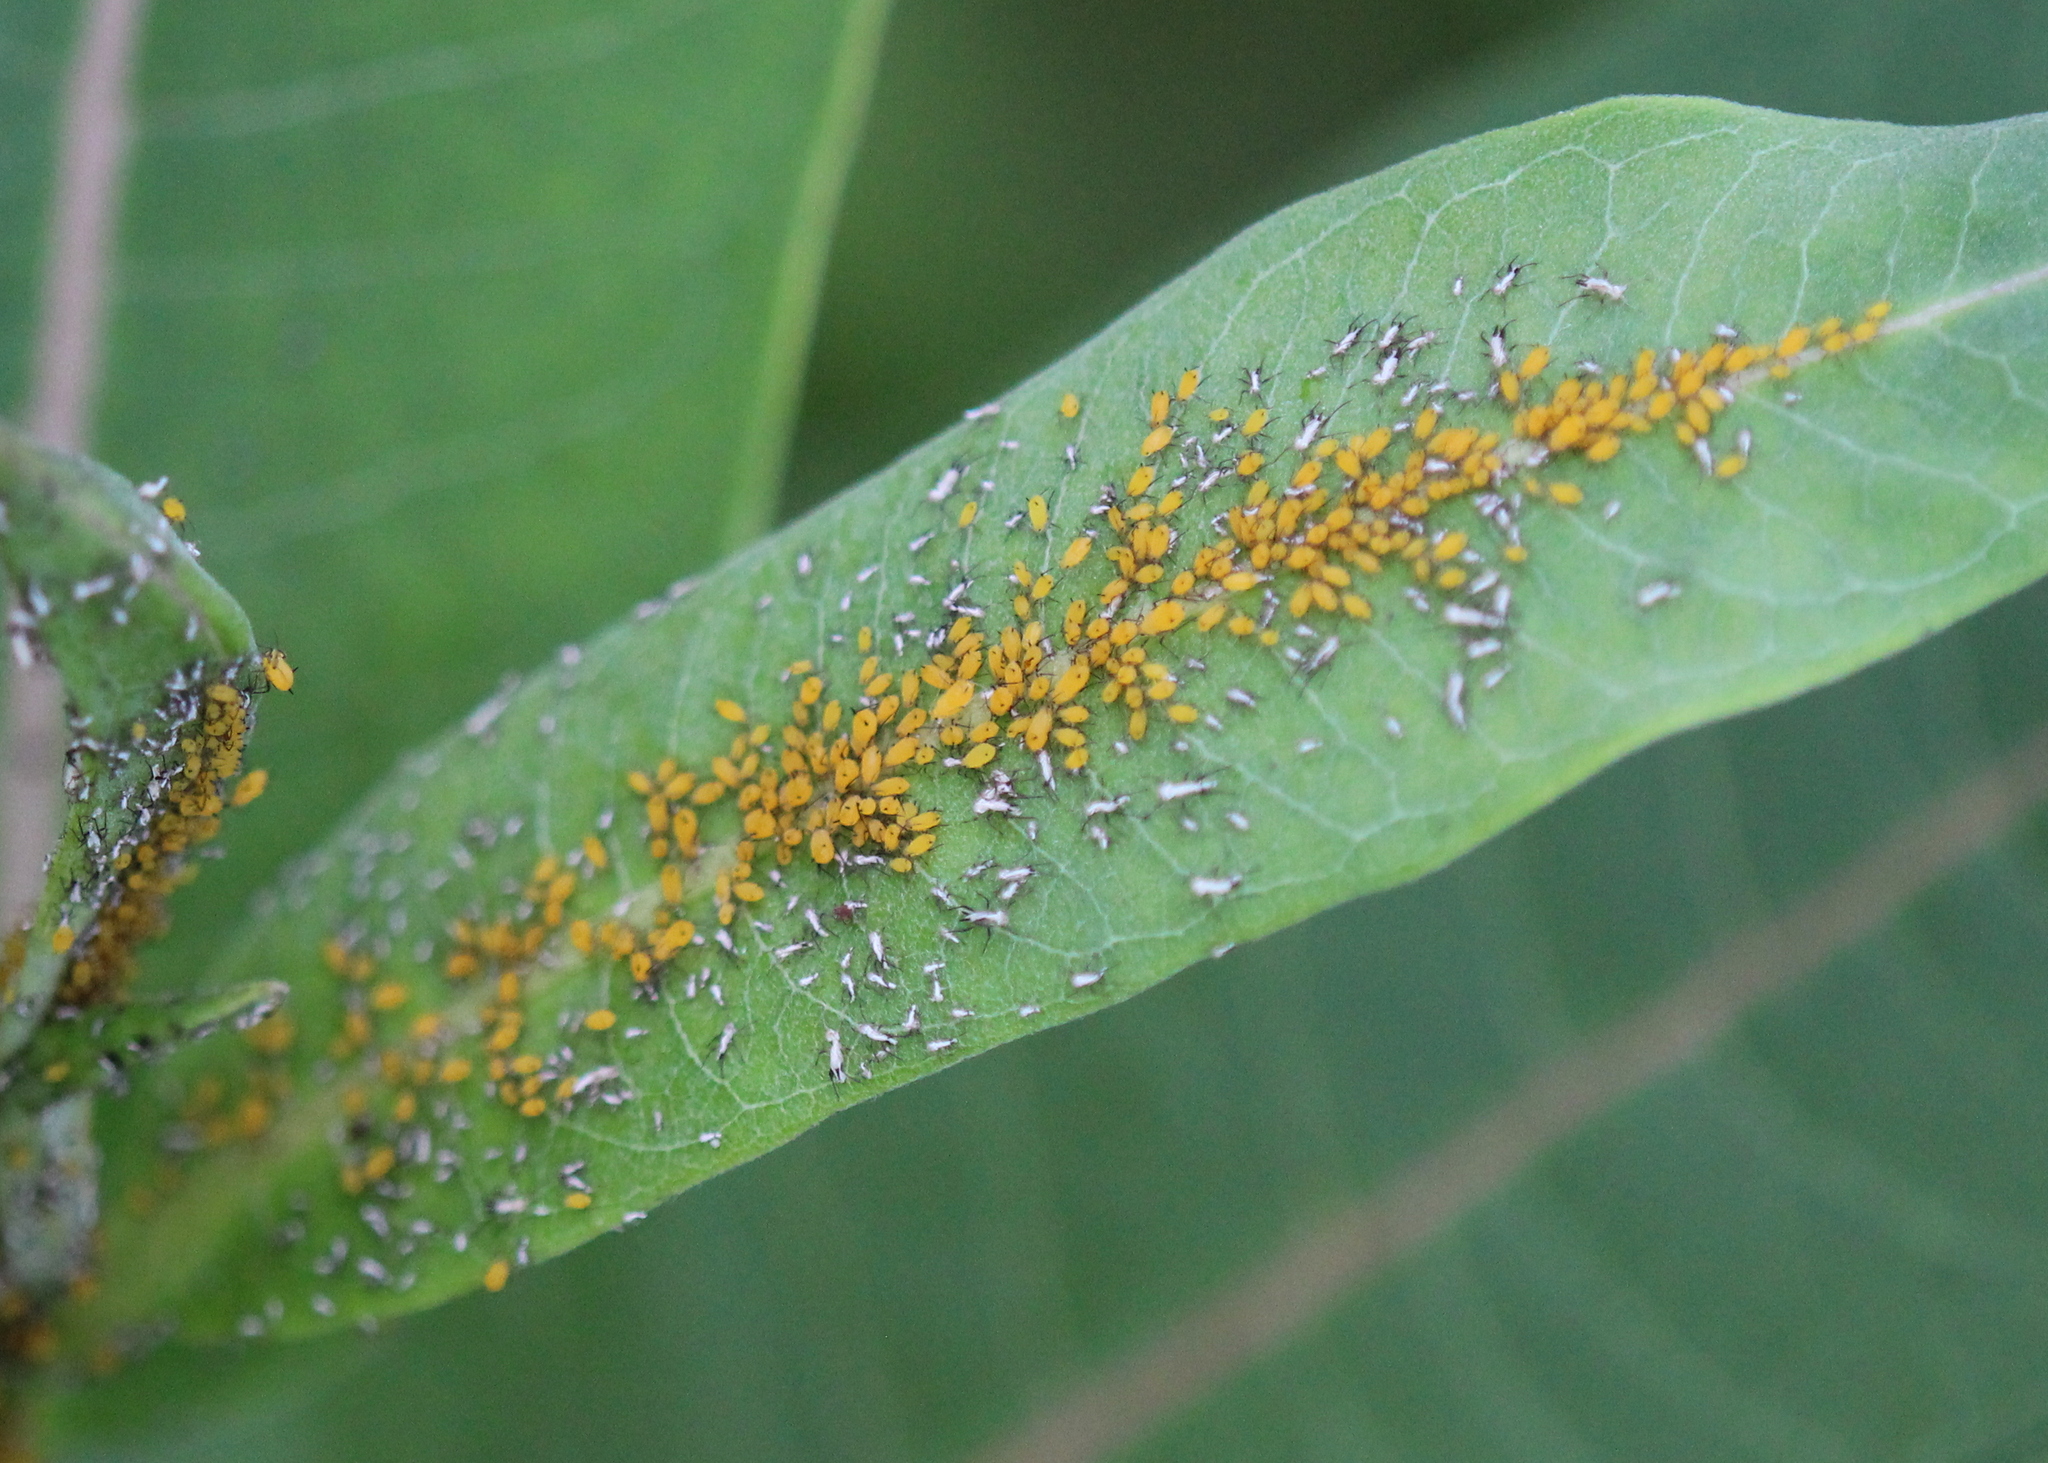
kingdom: Animalia
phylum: Arthropoda
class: Insecta
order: Hemiptera
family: Aphididae
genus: Aphis
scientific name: Aphis nerii
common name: Oleander aphid
